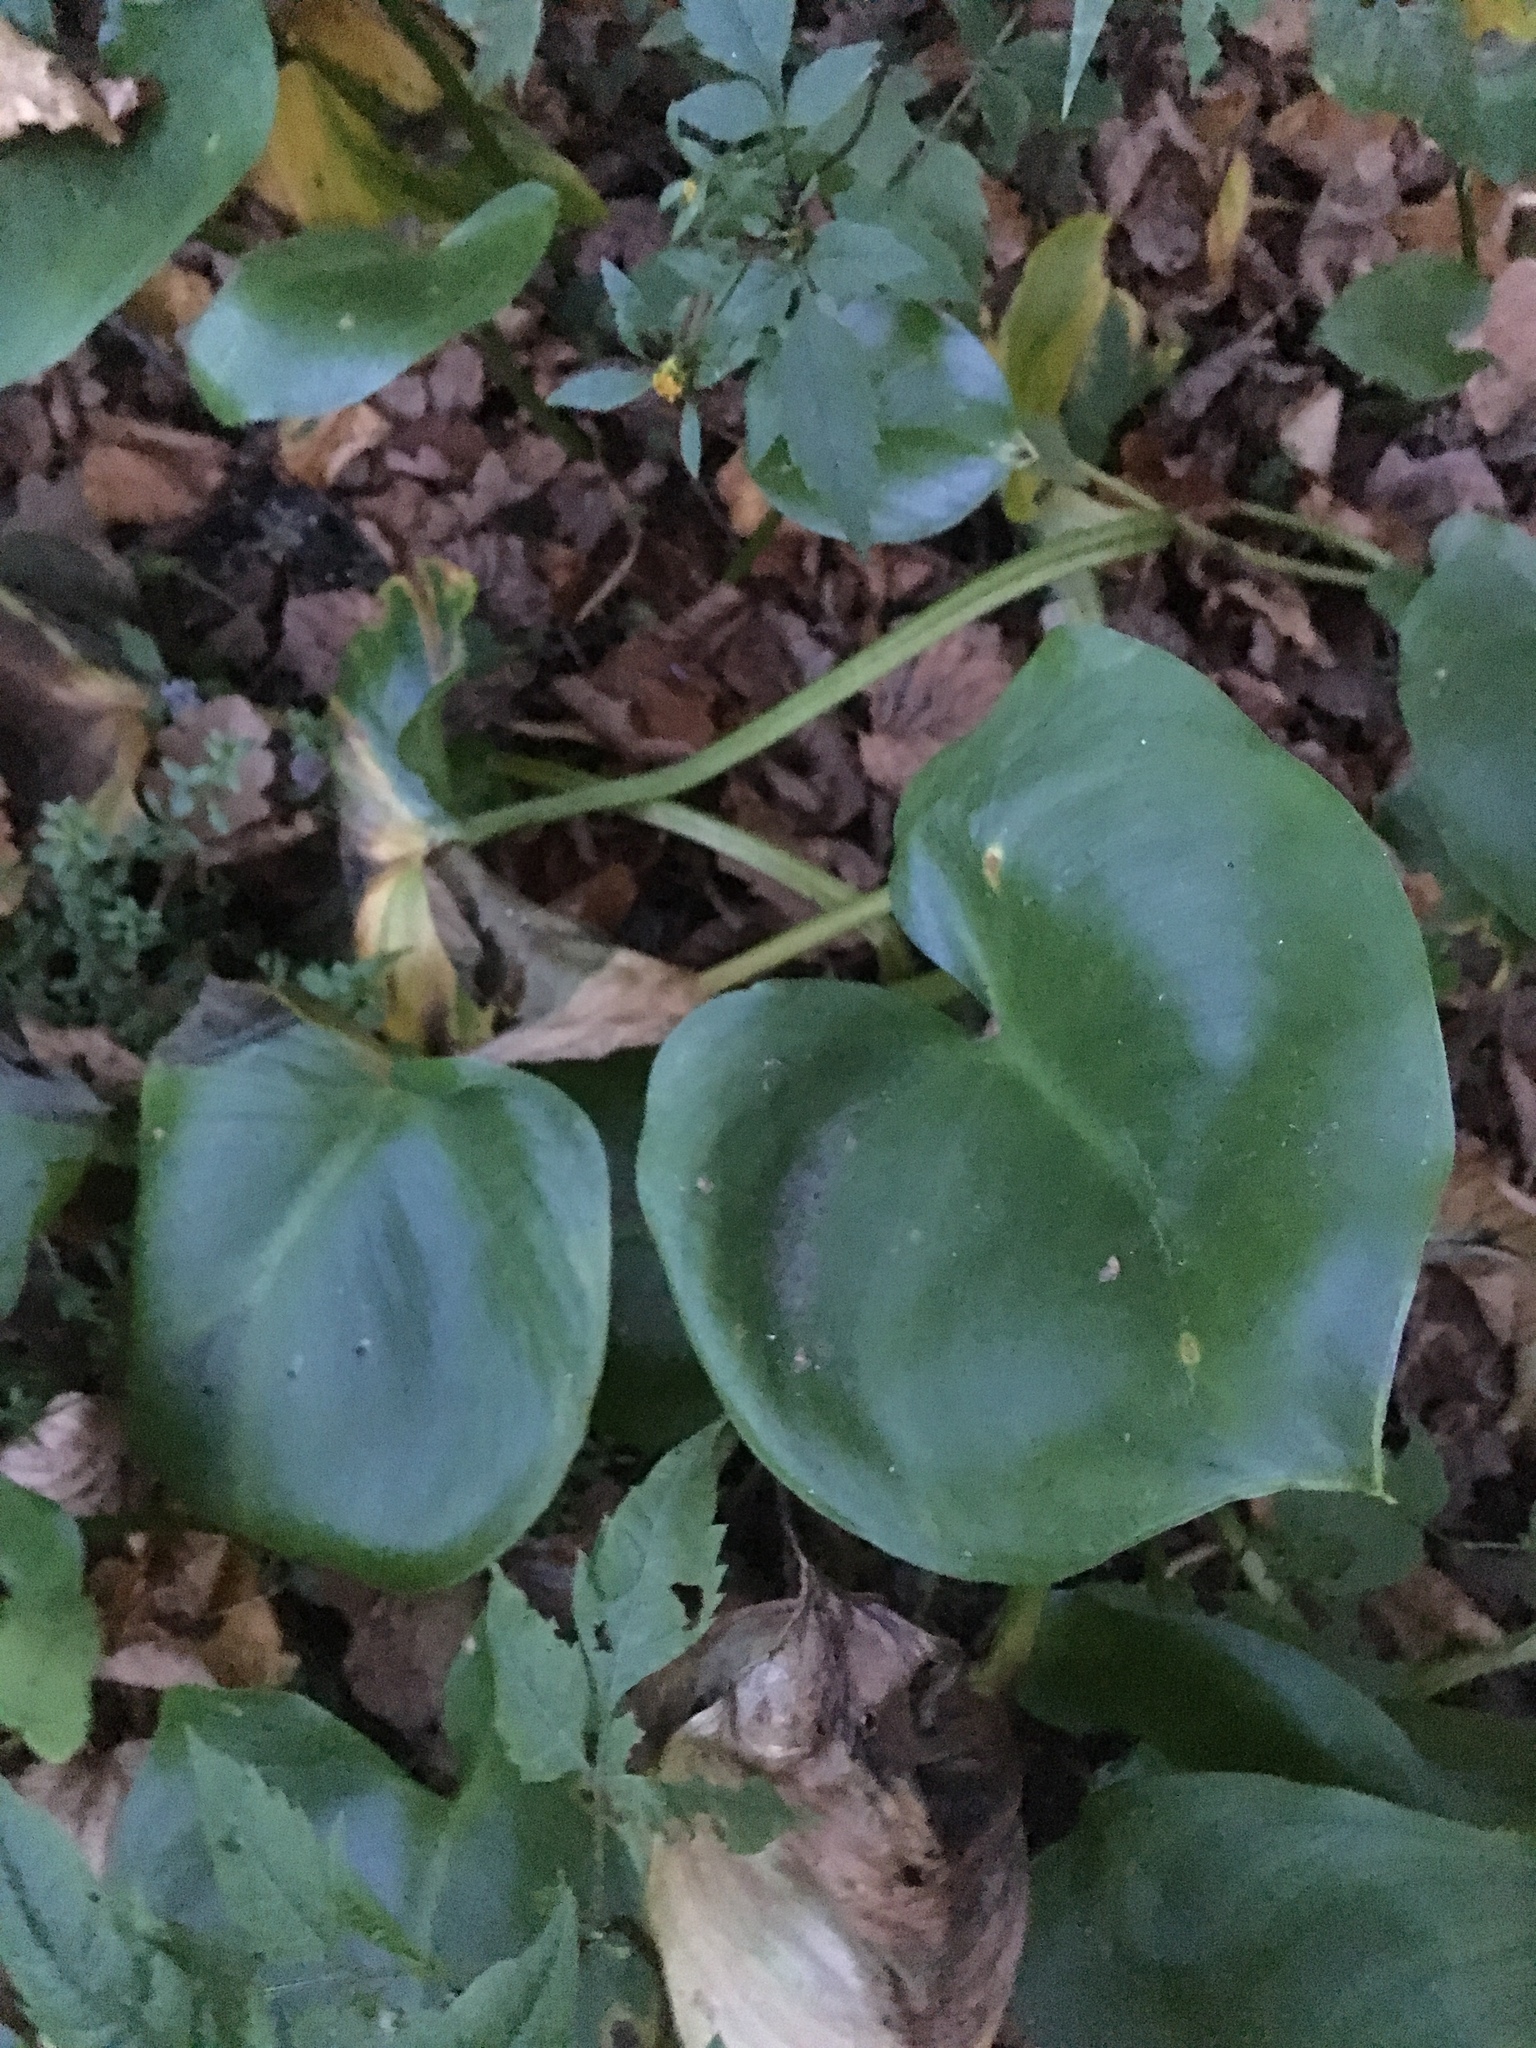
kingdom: Plantae
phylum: Tracheophyta
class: Liliopsida
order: Alismatales
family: Araceae
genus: Calla
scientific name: Calla palustris
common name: Bog arum
